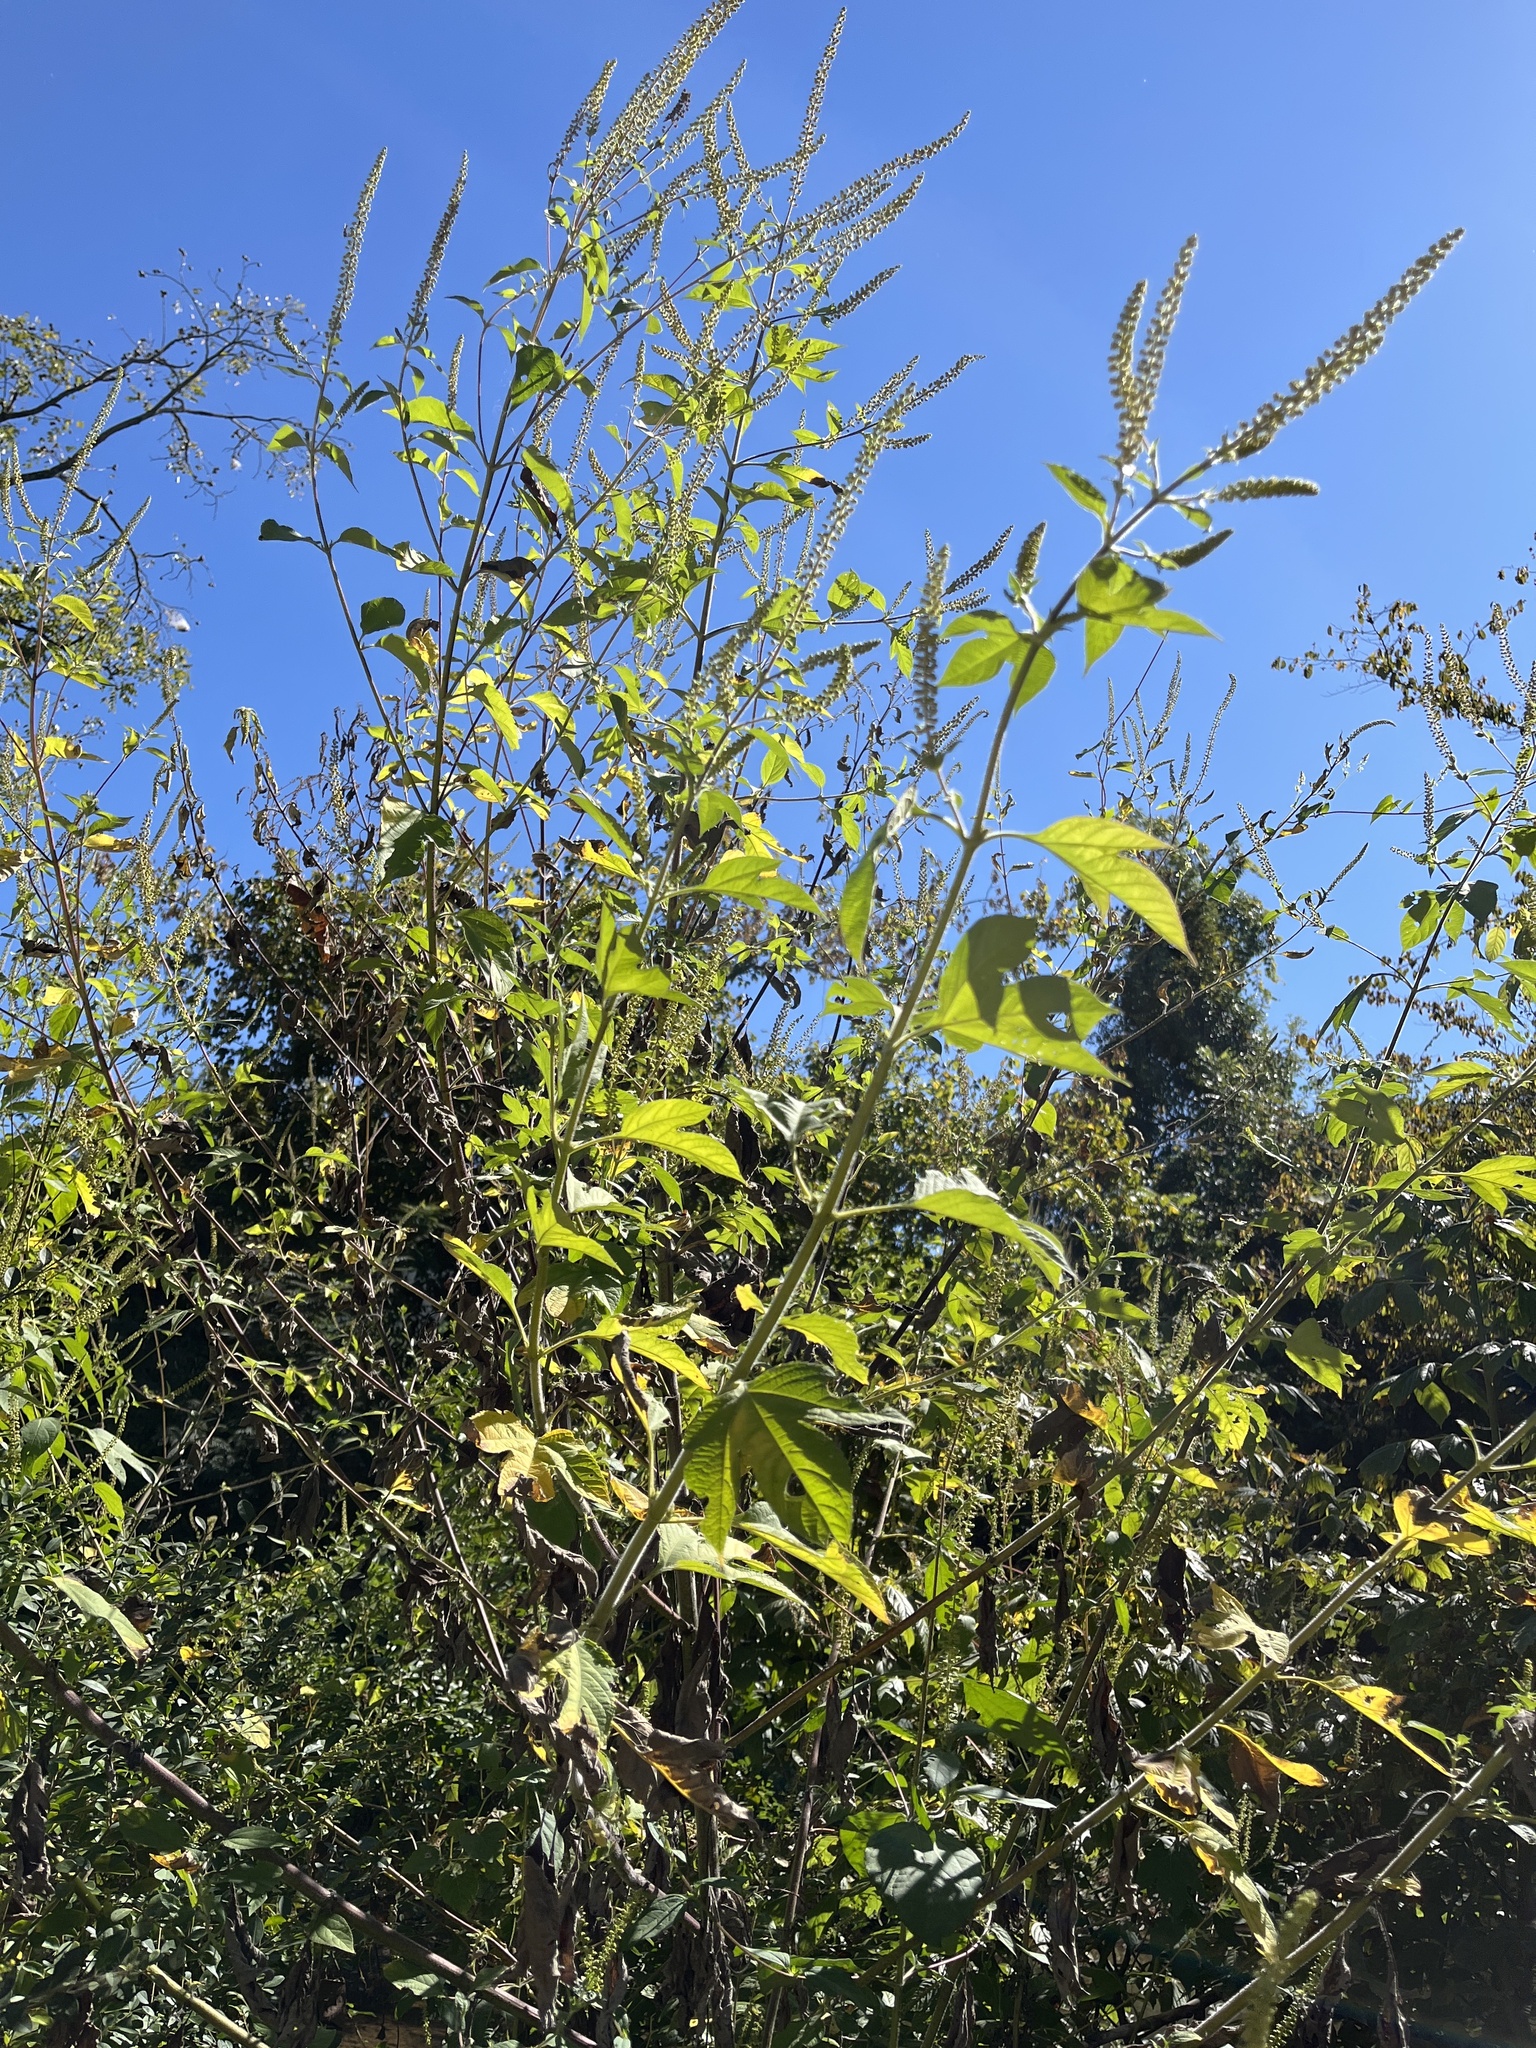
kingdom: Plantae
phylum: Tracheophyta
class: Magnoliopsida
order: Asterales
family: Asteraceae
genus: Ambrosia
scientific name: Ambrosia trifida
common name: Giant ragweed
